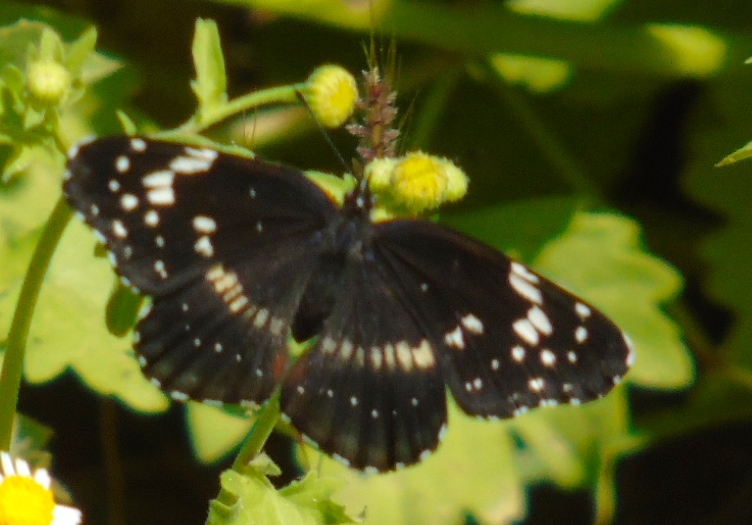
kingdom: Animalia
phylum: Arthropoda
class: Insecta
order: Lepidoptera
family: Nymphalidae
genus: Chlosyne
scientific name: Chlosyne lacinia
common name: Bordered patch
